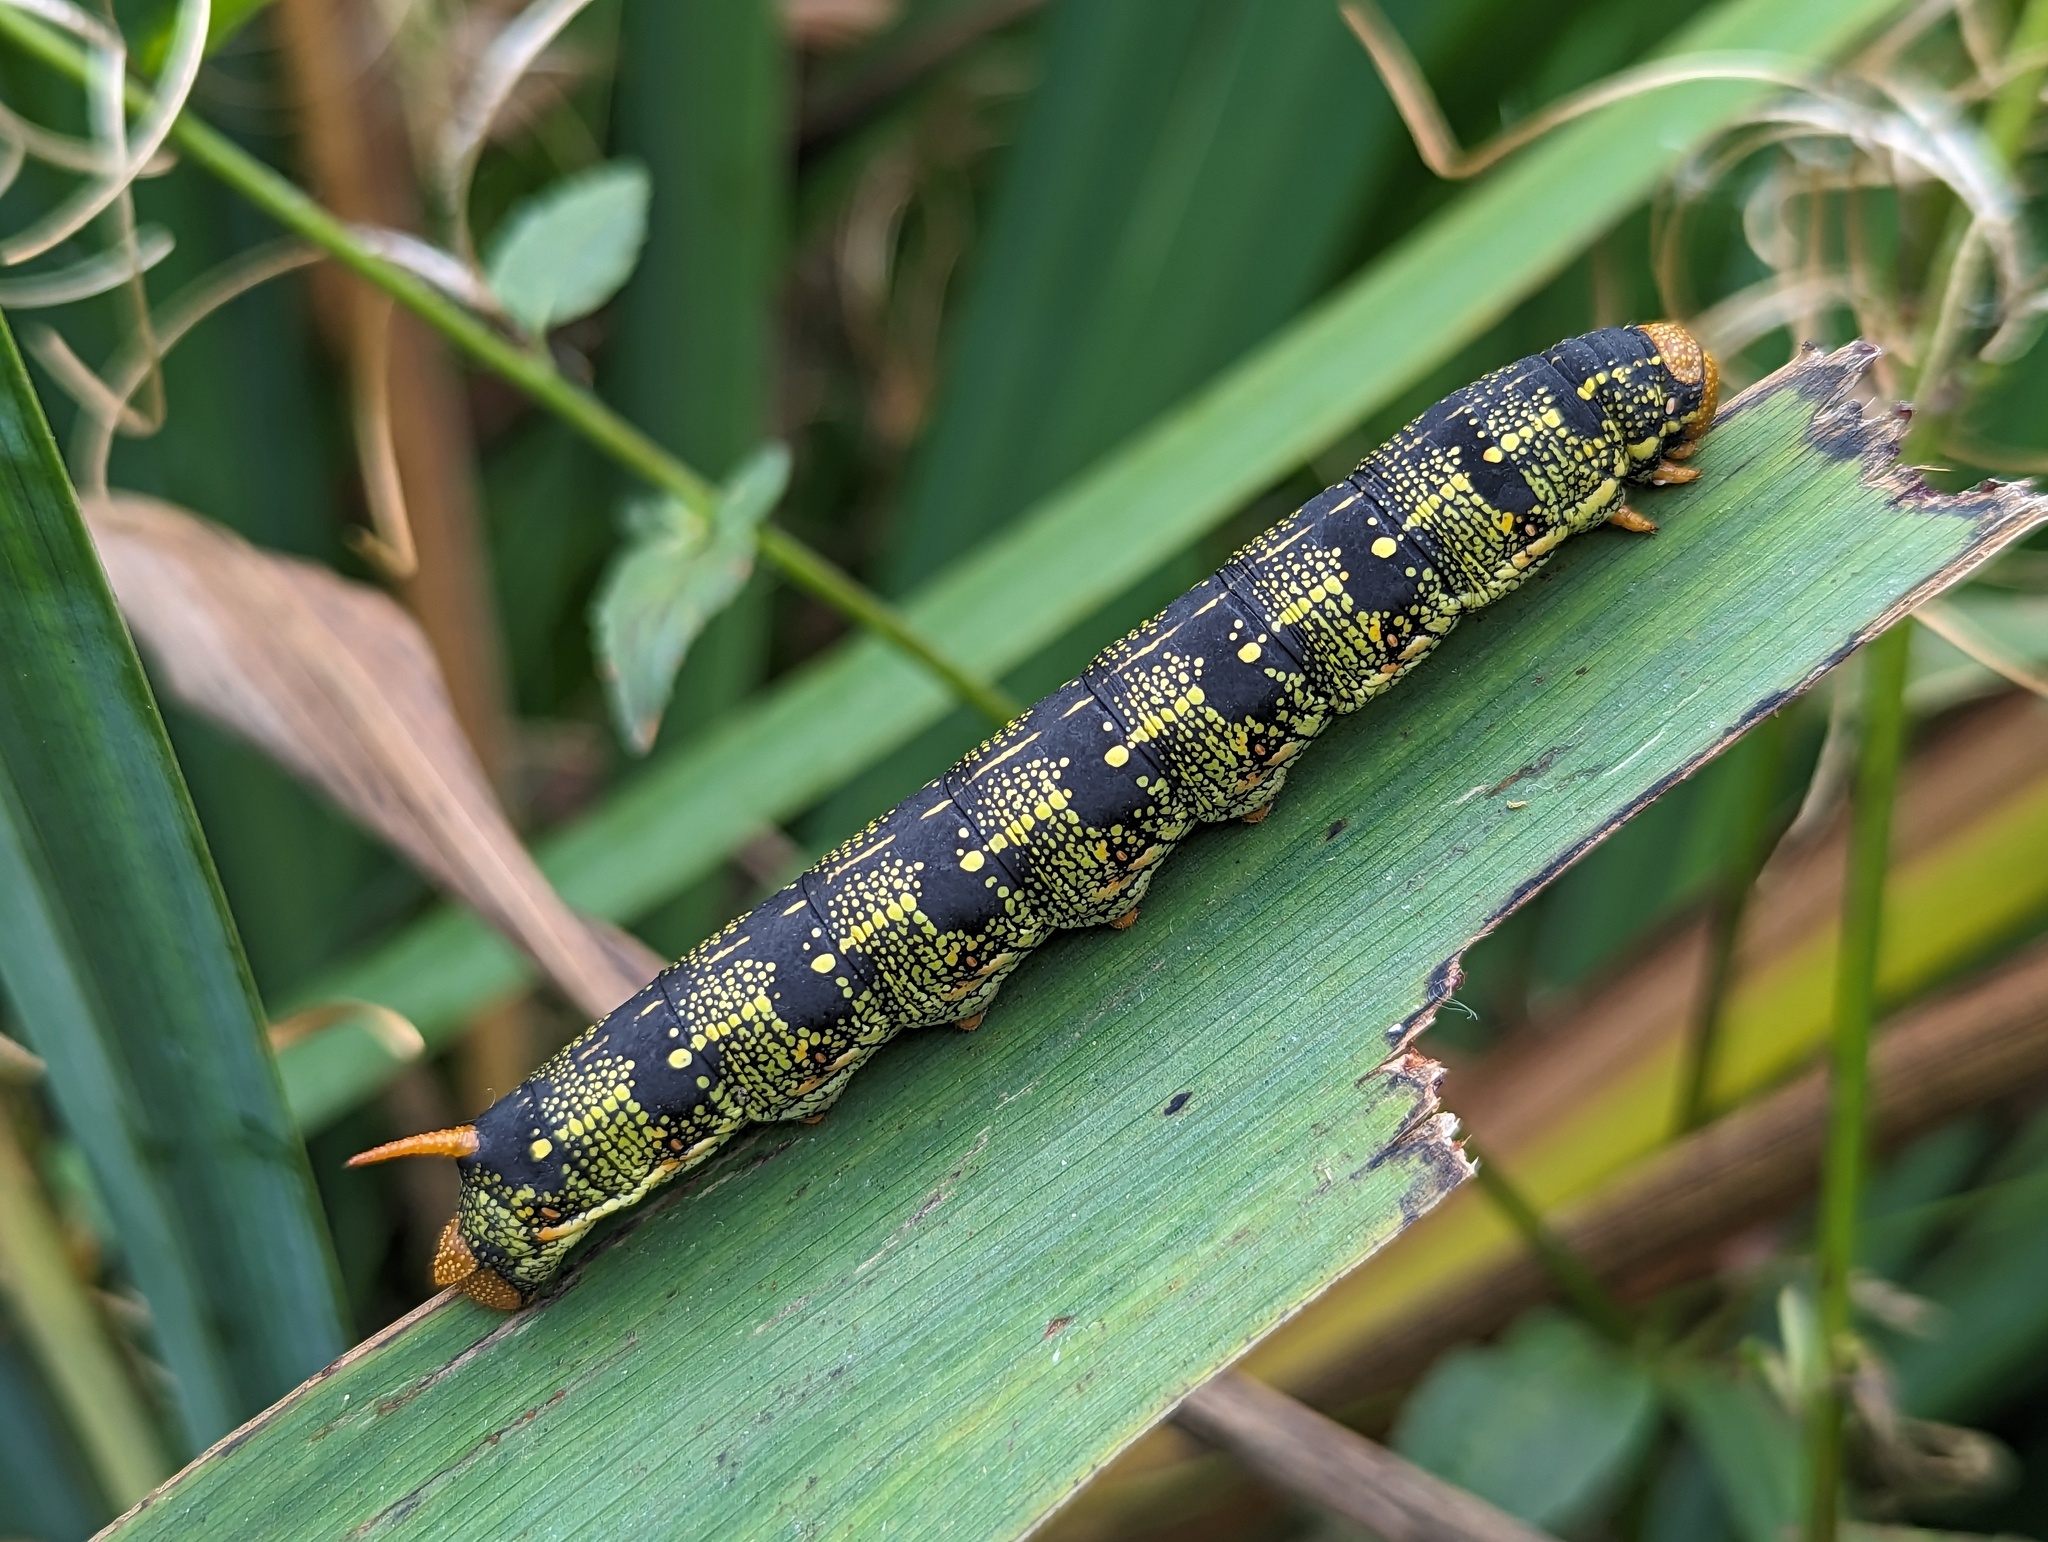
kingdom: Animalia
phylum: Arthropoda
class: Insecta
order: Lepidoptera
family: Sphingidae
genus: Hyles
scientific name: Hyles lineata
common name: White-lined sphinx
